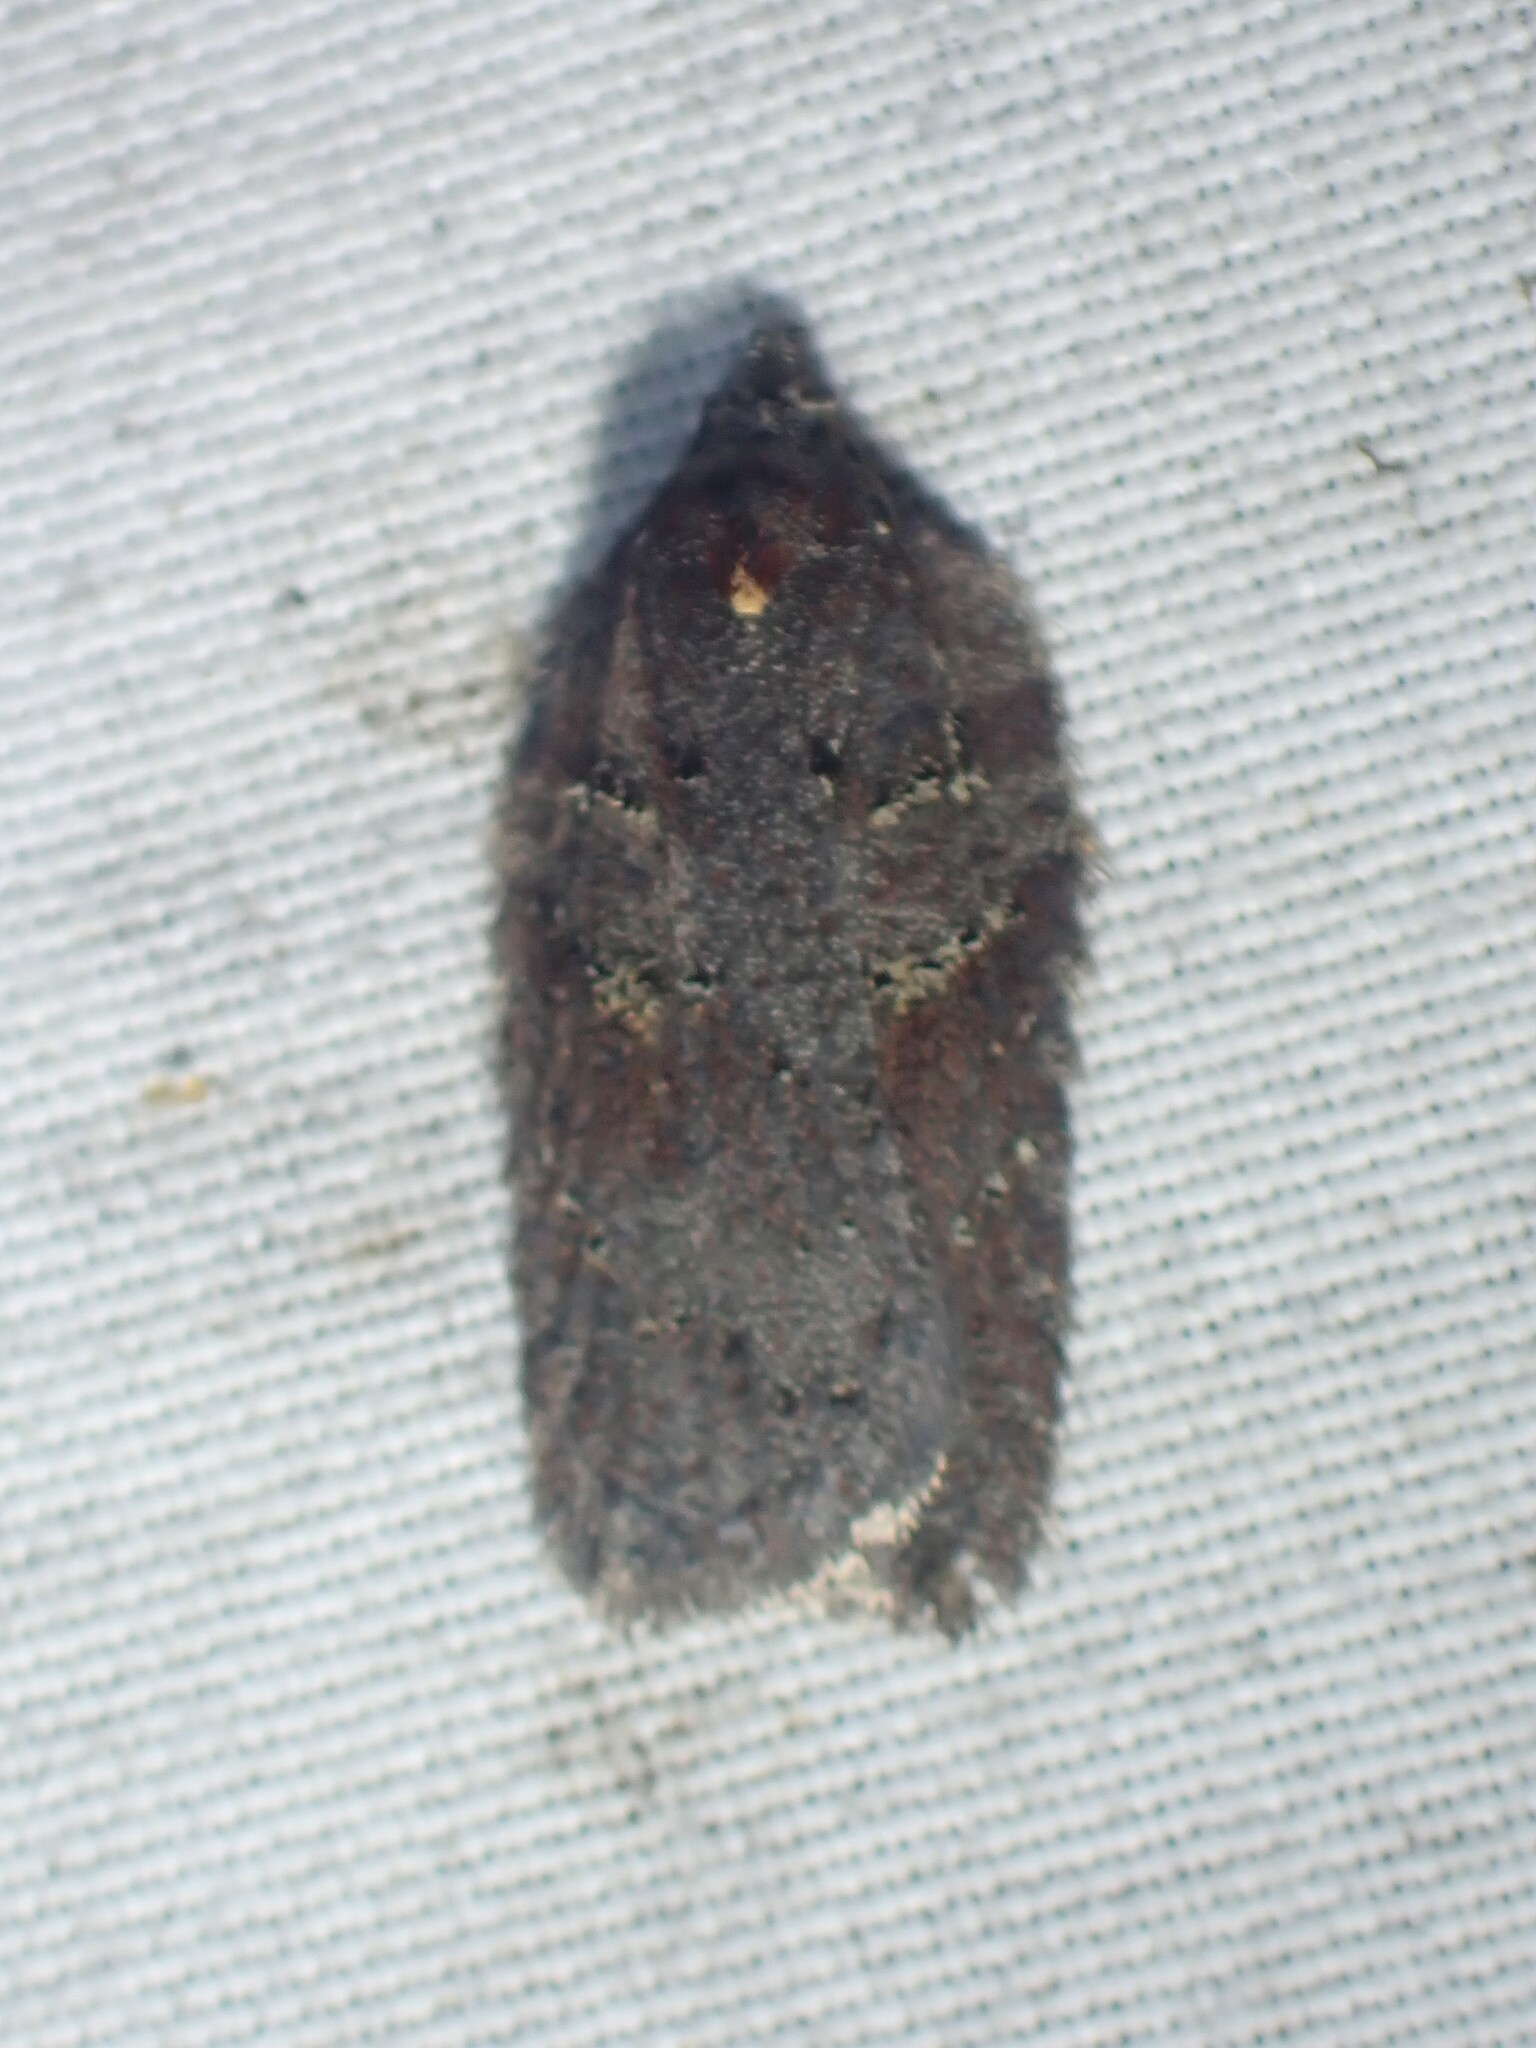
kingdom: Animalia
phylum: Arthropoda
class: Insecta
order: Lepidoptera
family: Tortricidae
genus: Acleris
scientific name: Acleris caliginosana
